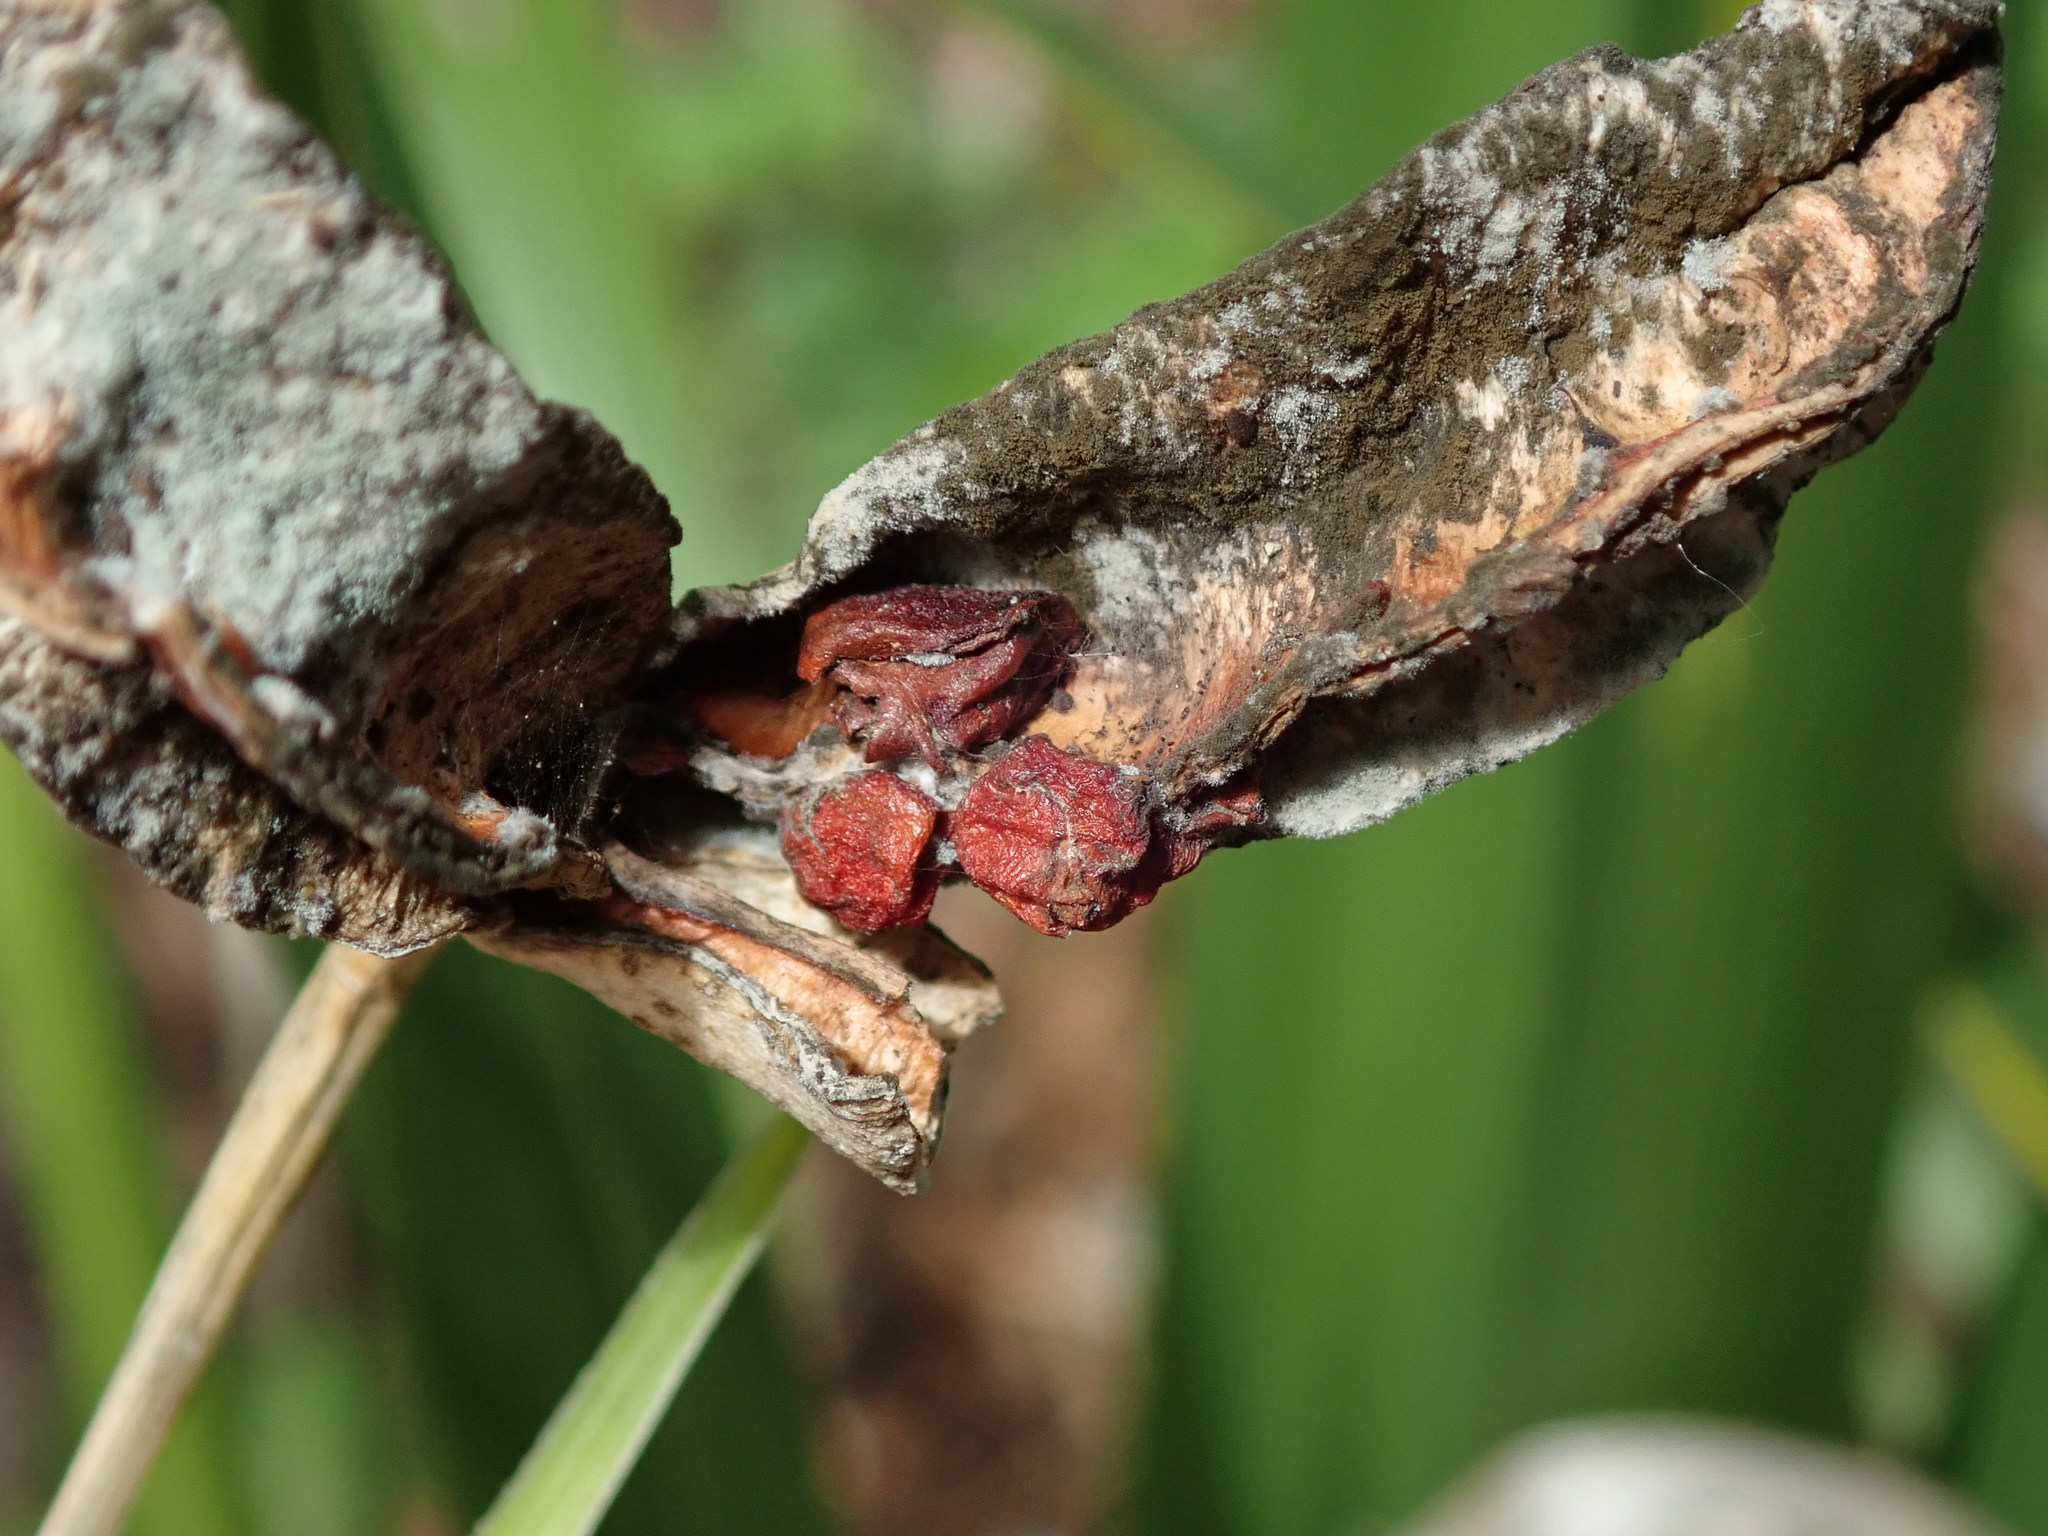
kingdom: Plantae
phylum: Tracheophyta
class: Liliopsida
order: Asparagales
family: Iridaceae
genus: Iris
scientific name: Iris foetidissima
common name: Stinking iris
